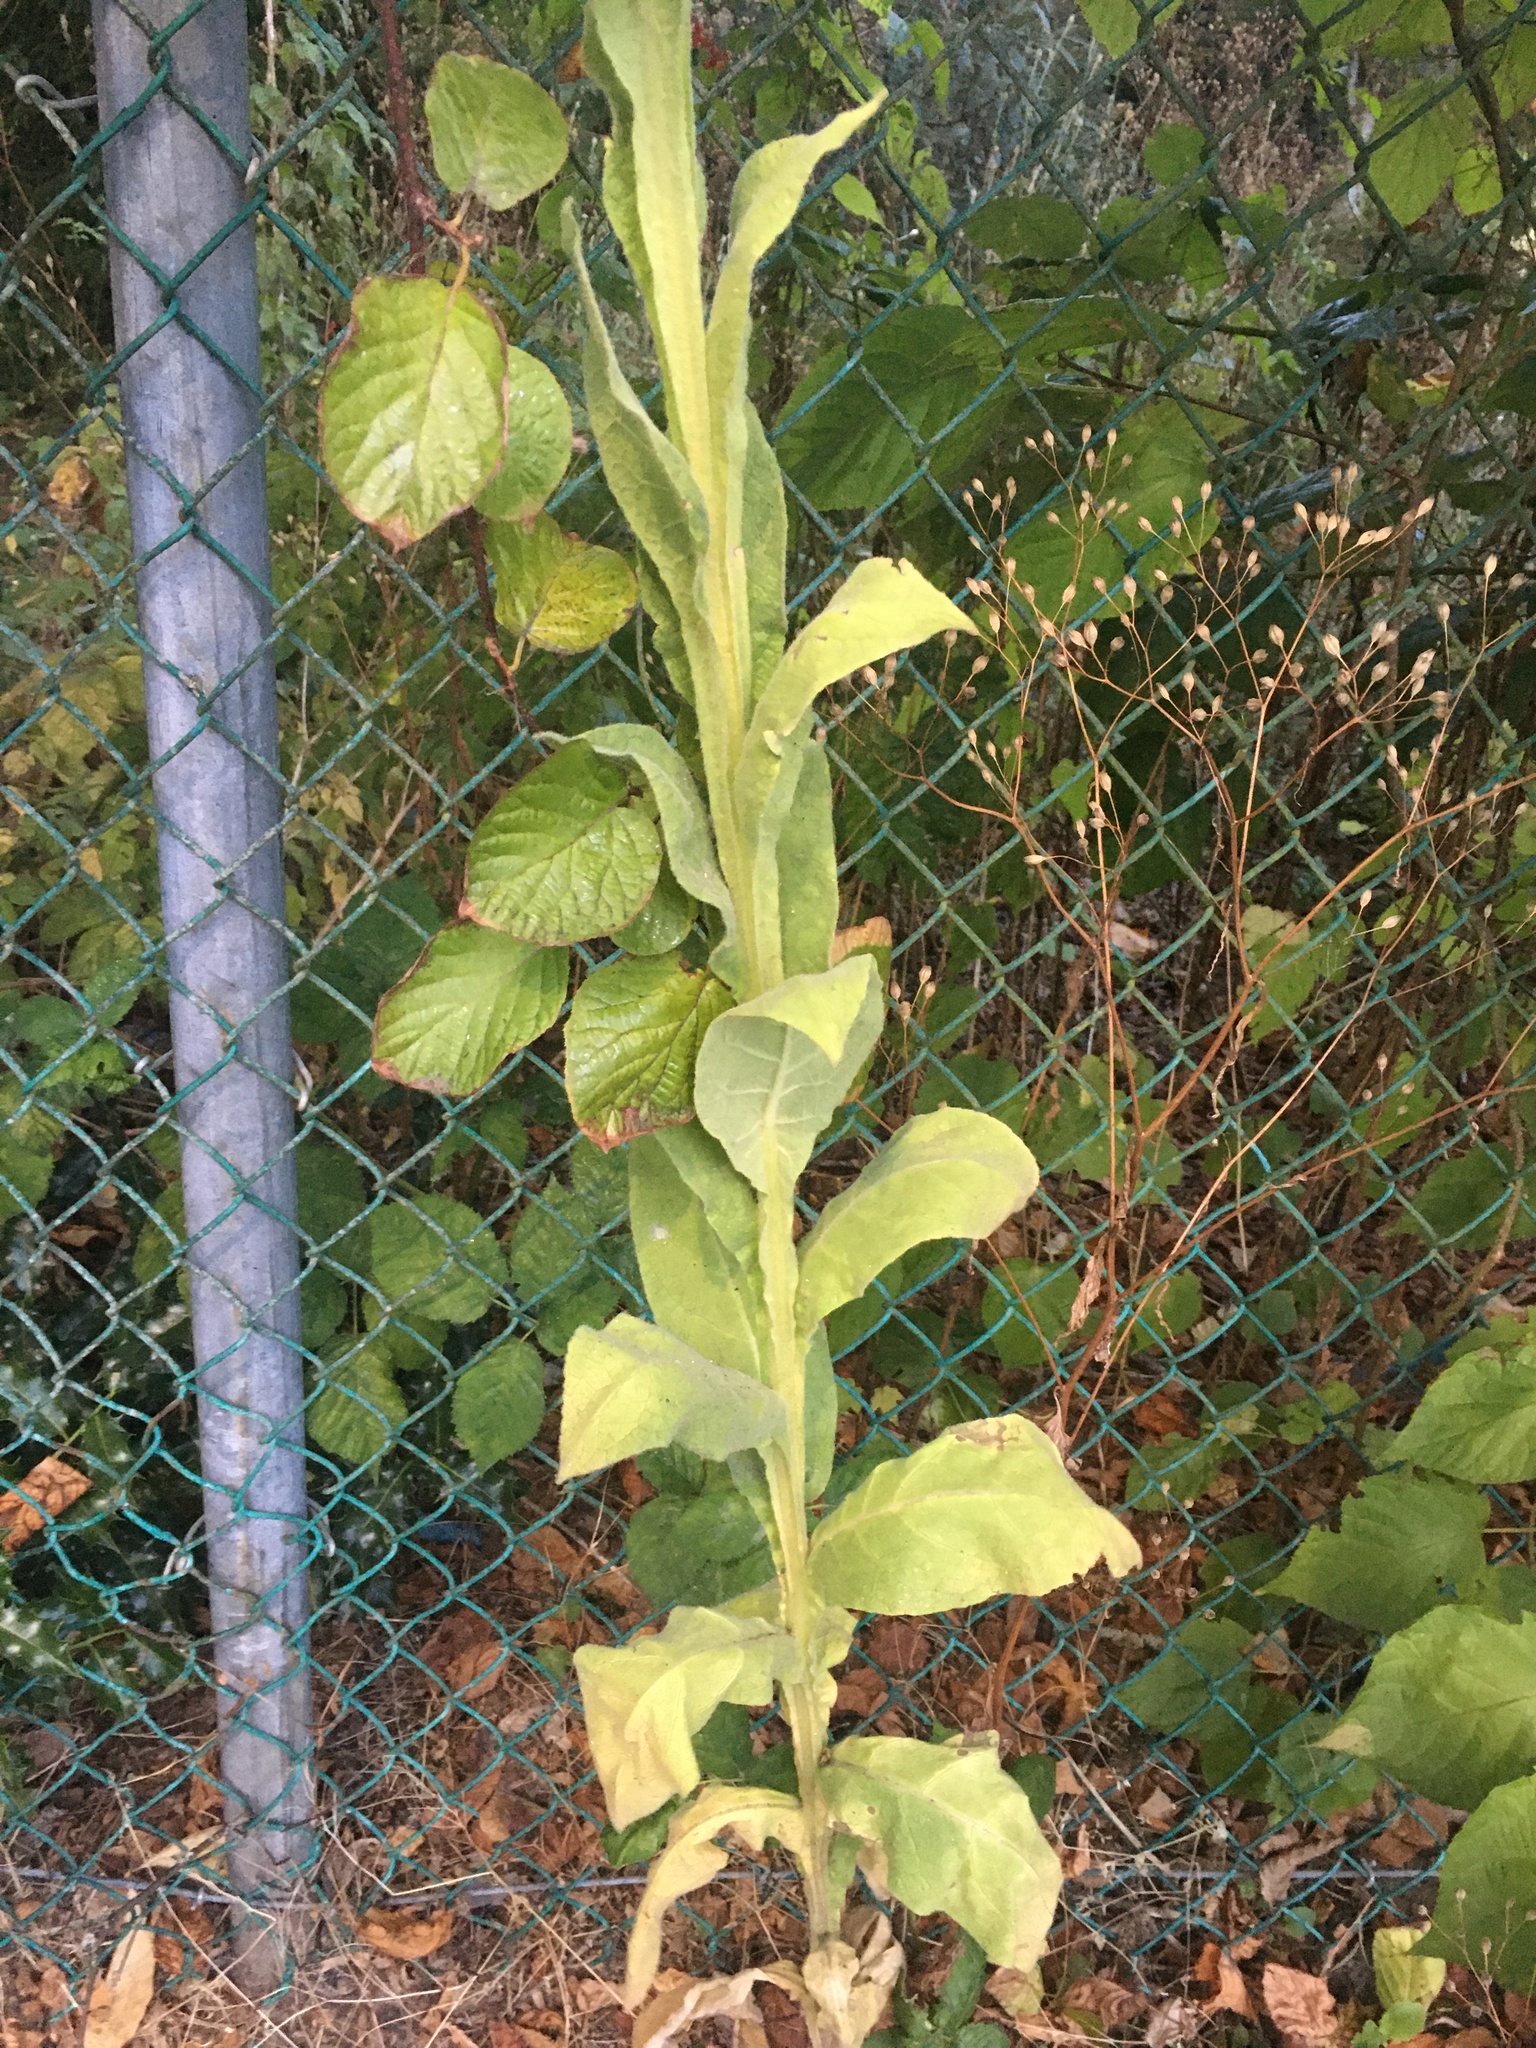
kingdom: Plantae
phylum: Tracheophyta
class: Magnoliopsida
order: Lamiales
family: Scrophulariaceae
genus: Verbascum
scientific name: Verbascum thapsus
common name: Common mullein
